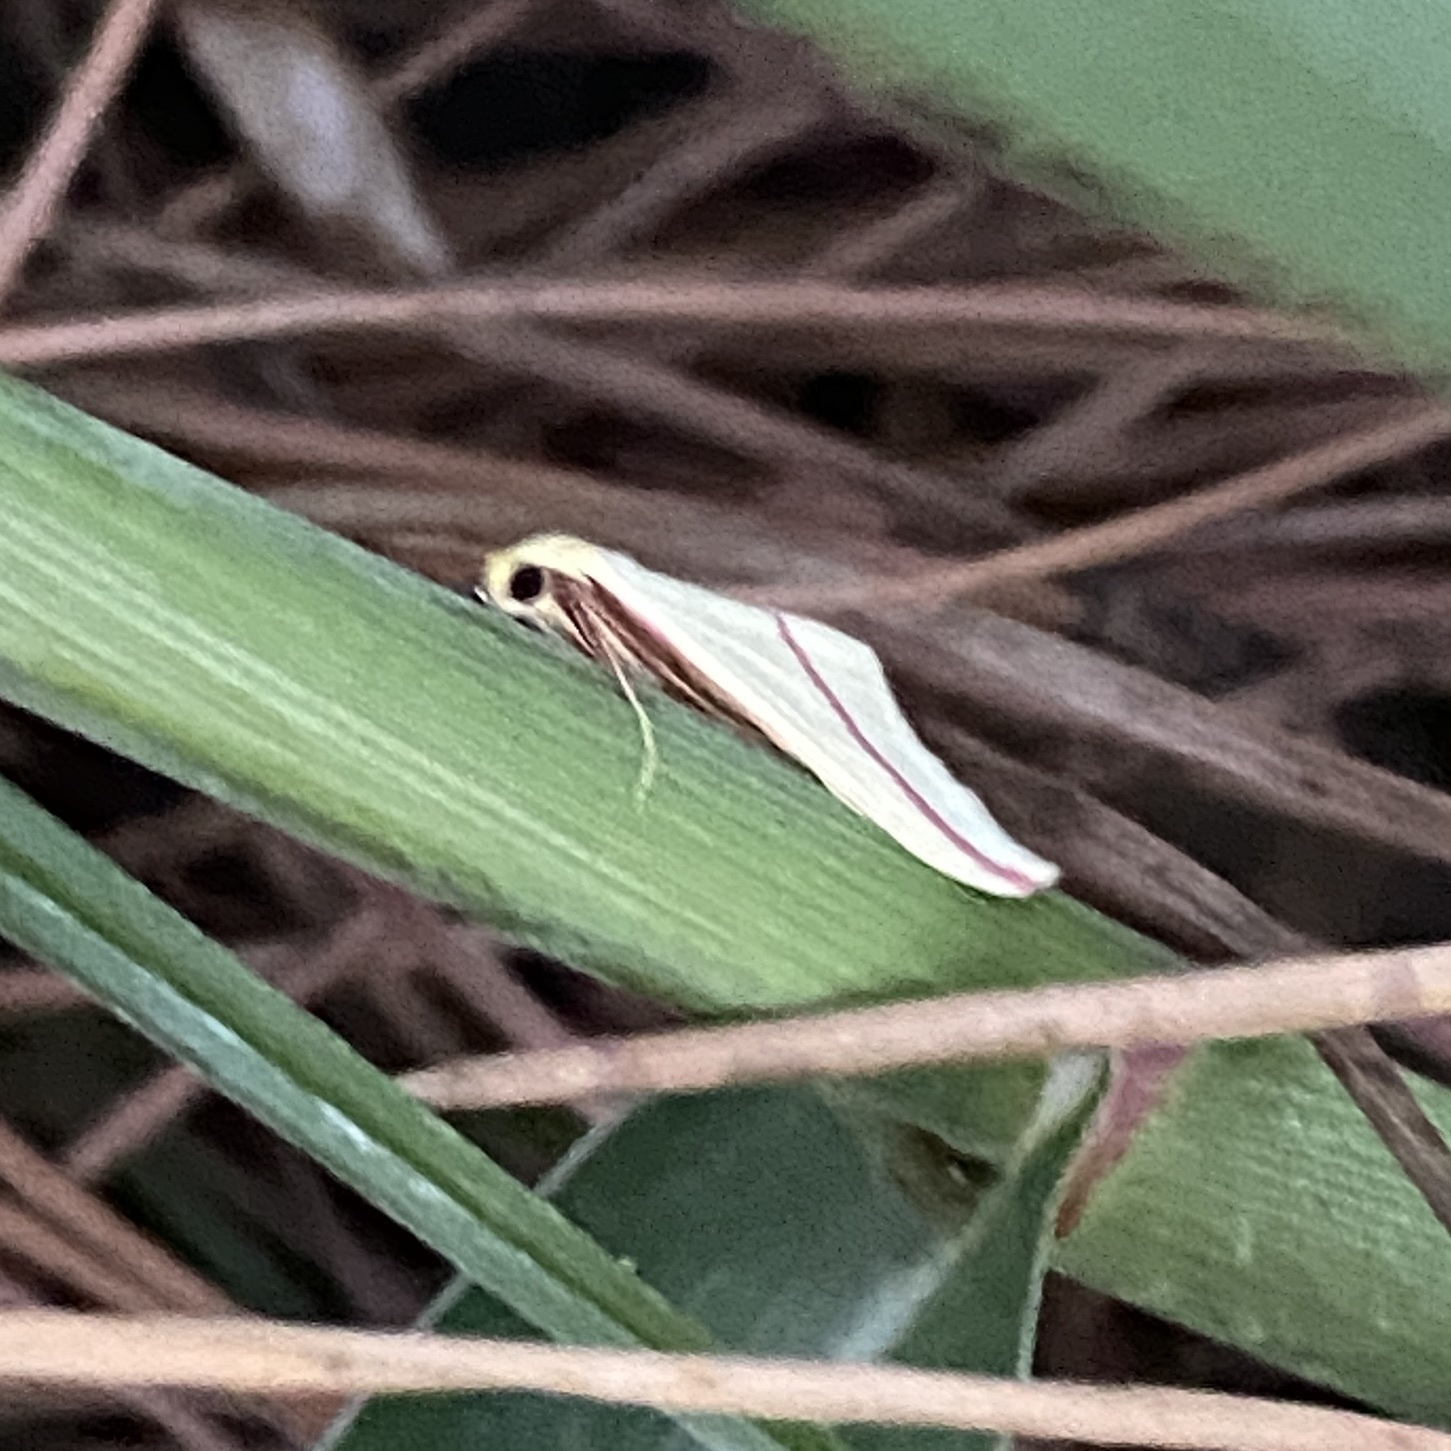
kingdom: Animalia
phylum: Arthropoda
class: Insecta
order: Lepidoptera
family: Geometridae
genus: Rhodometra
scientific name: Rhodometra sacraria
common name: Vestal
